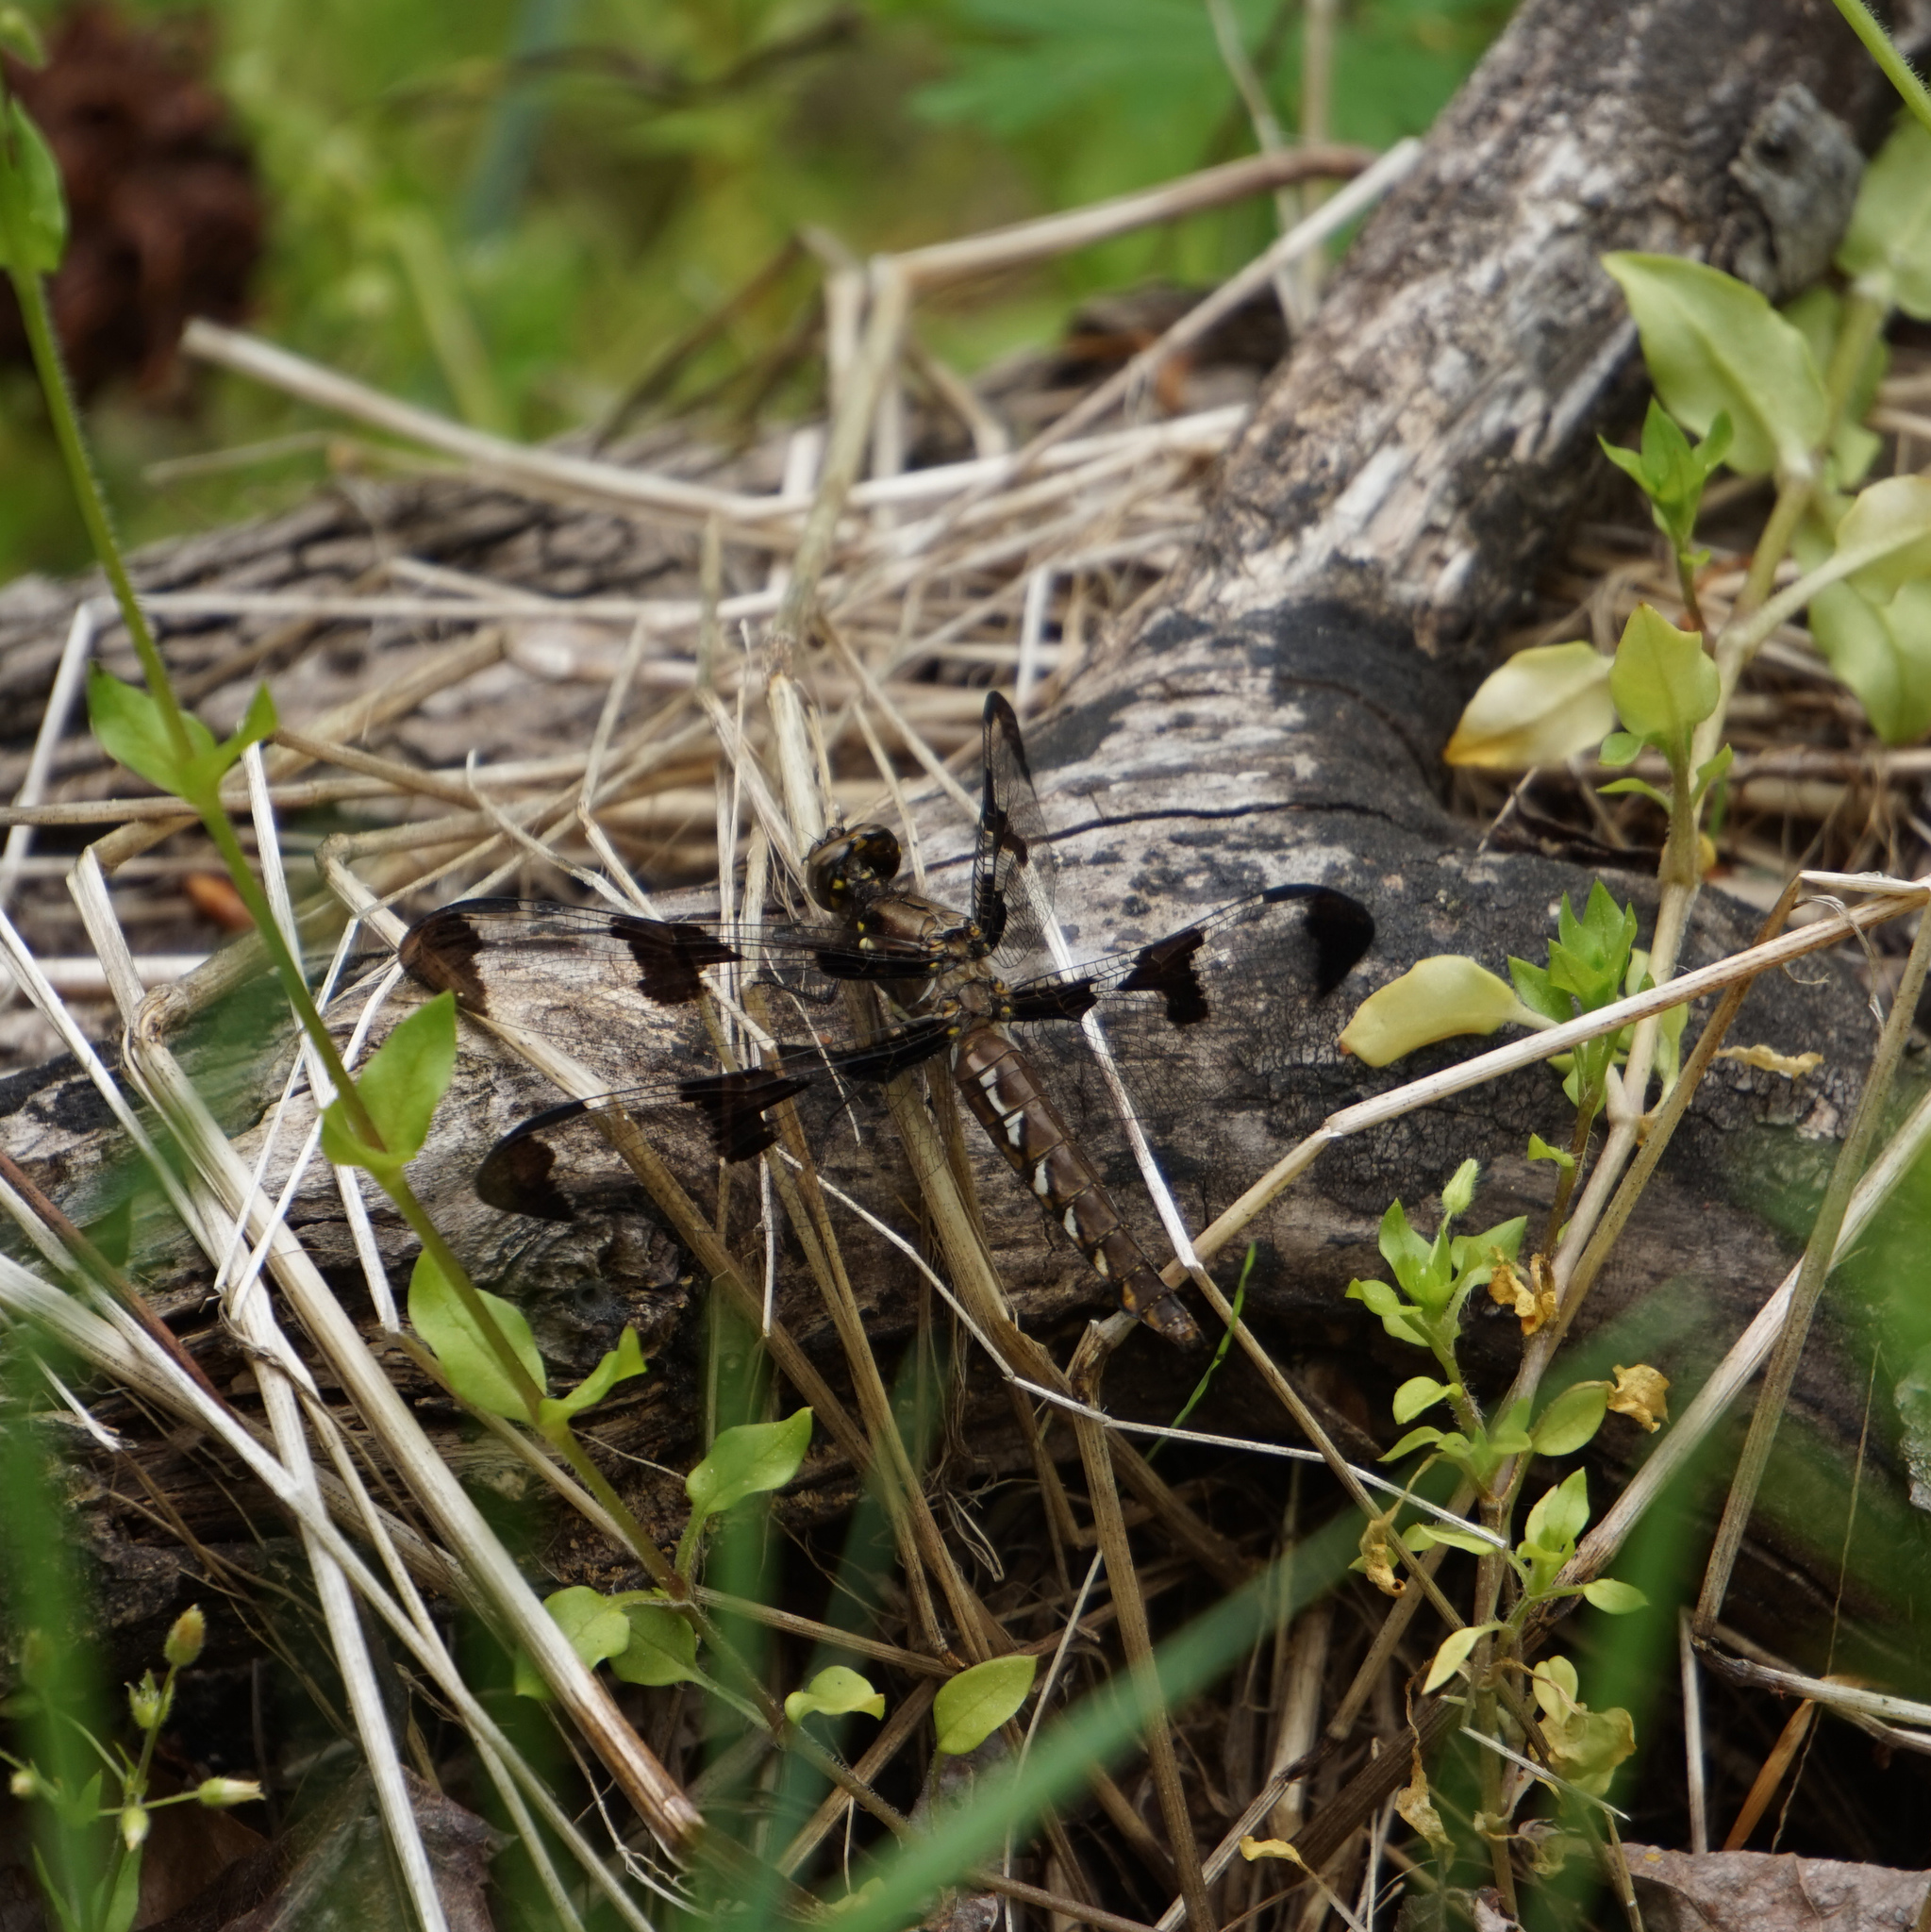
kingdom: Animalia
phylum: Arthropoda
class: Insecta
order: Odonata
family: Libellulidae
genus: Plathemis
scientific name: Plathemis lydia
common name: Common whitetail
